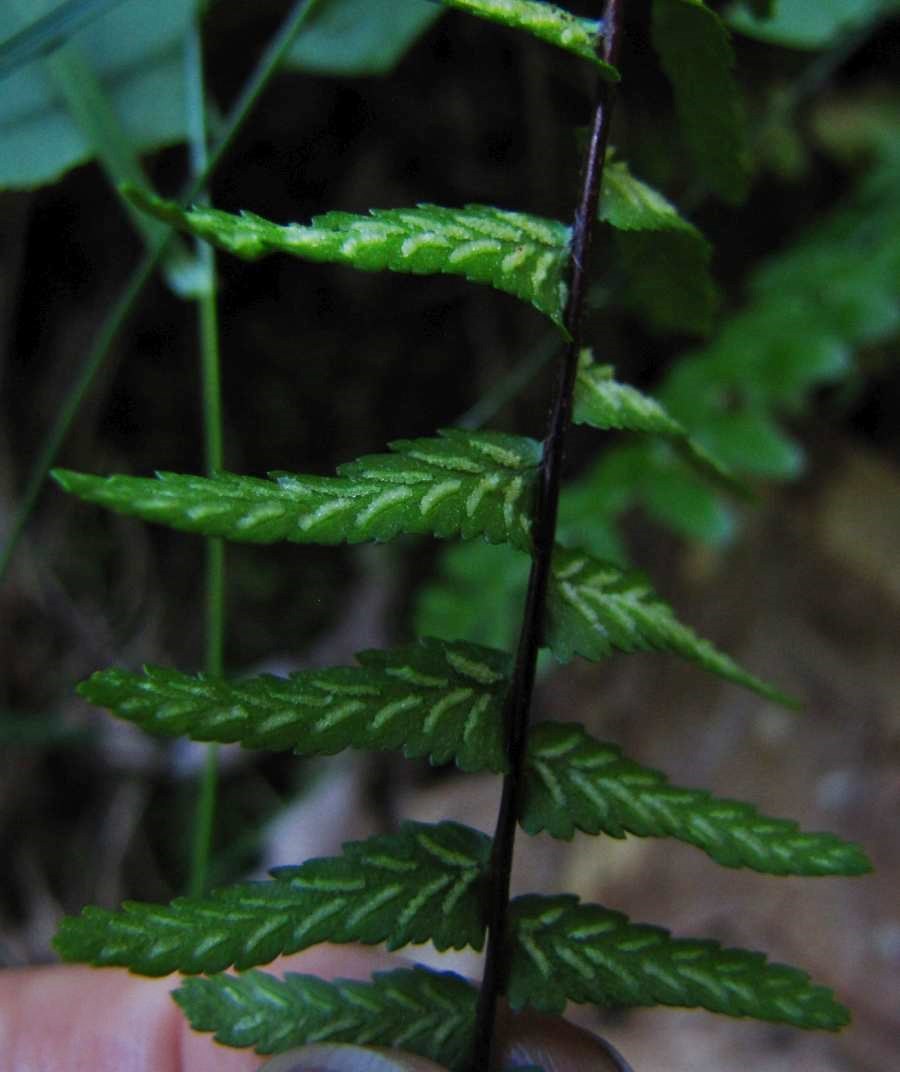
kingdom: Plantae
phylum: Tracheophyta
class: Polypodiopsida
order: Polypodiales
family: Aspleniaceae
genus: Asplenium
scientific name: Asplenium platyneuron
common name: Ebony spleenwort
